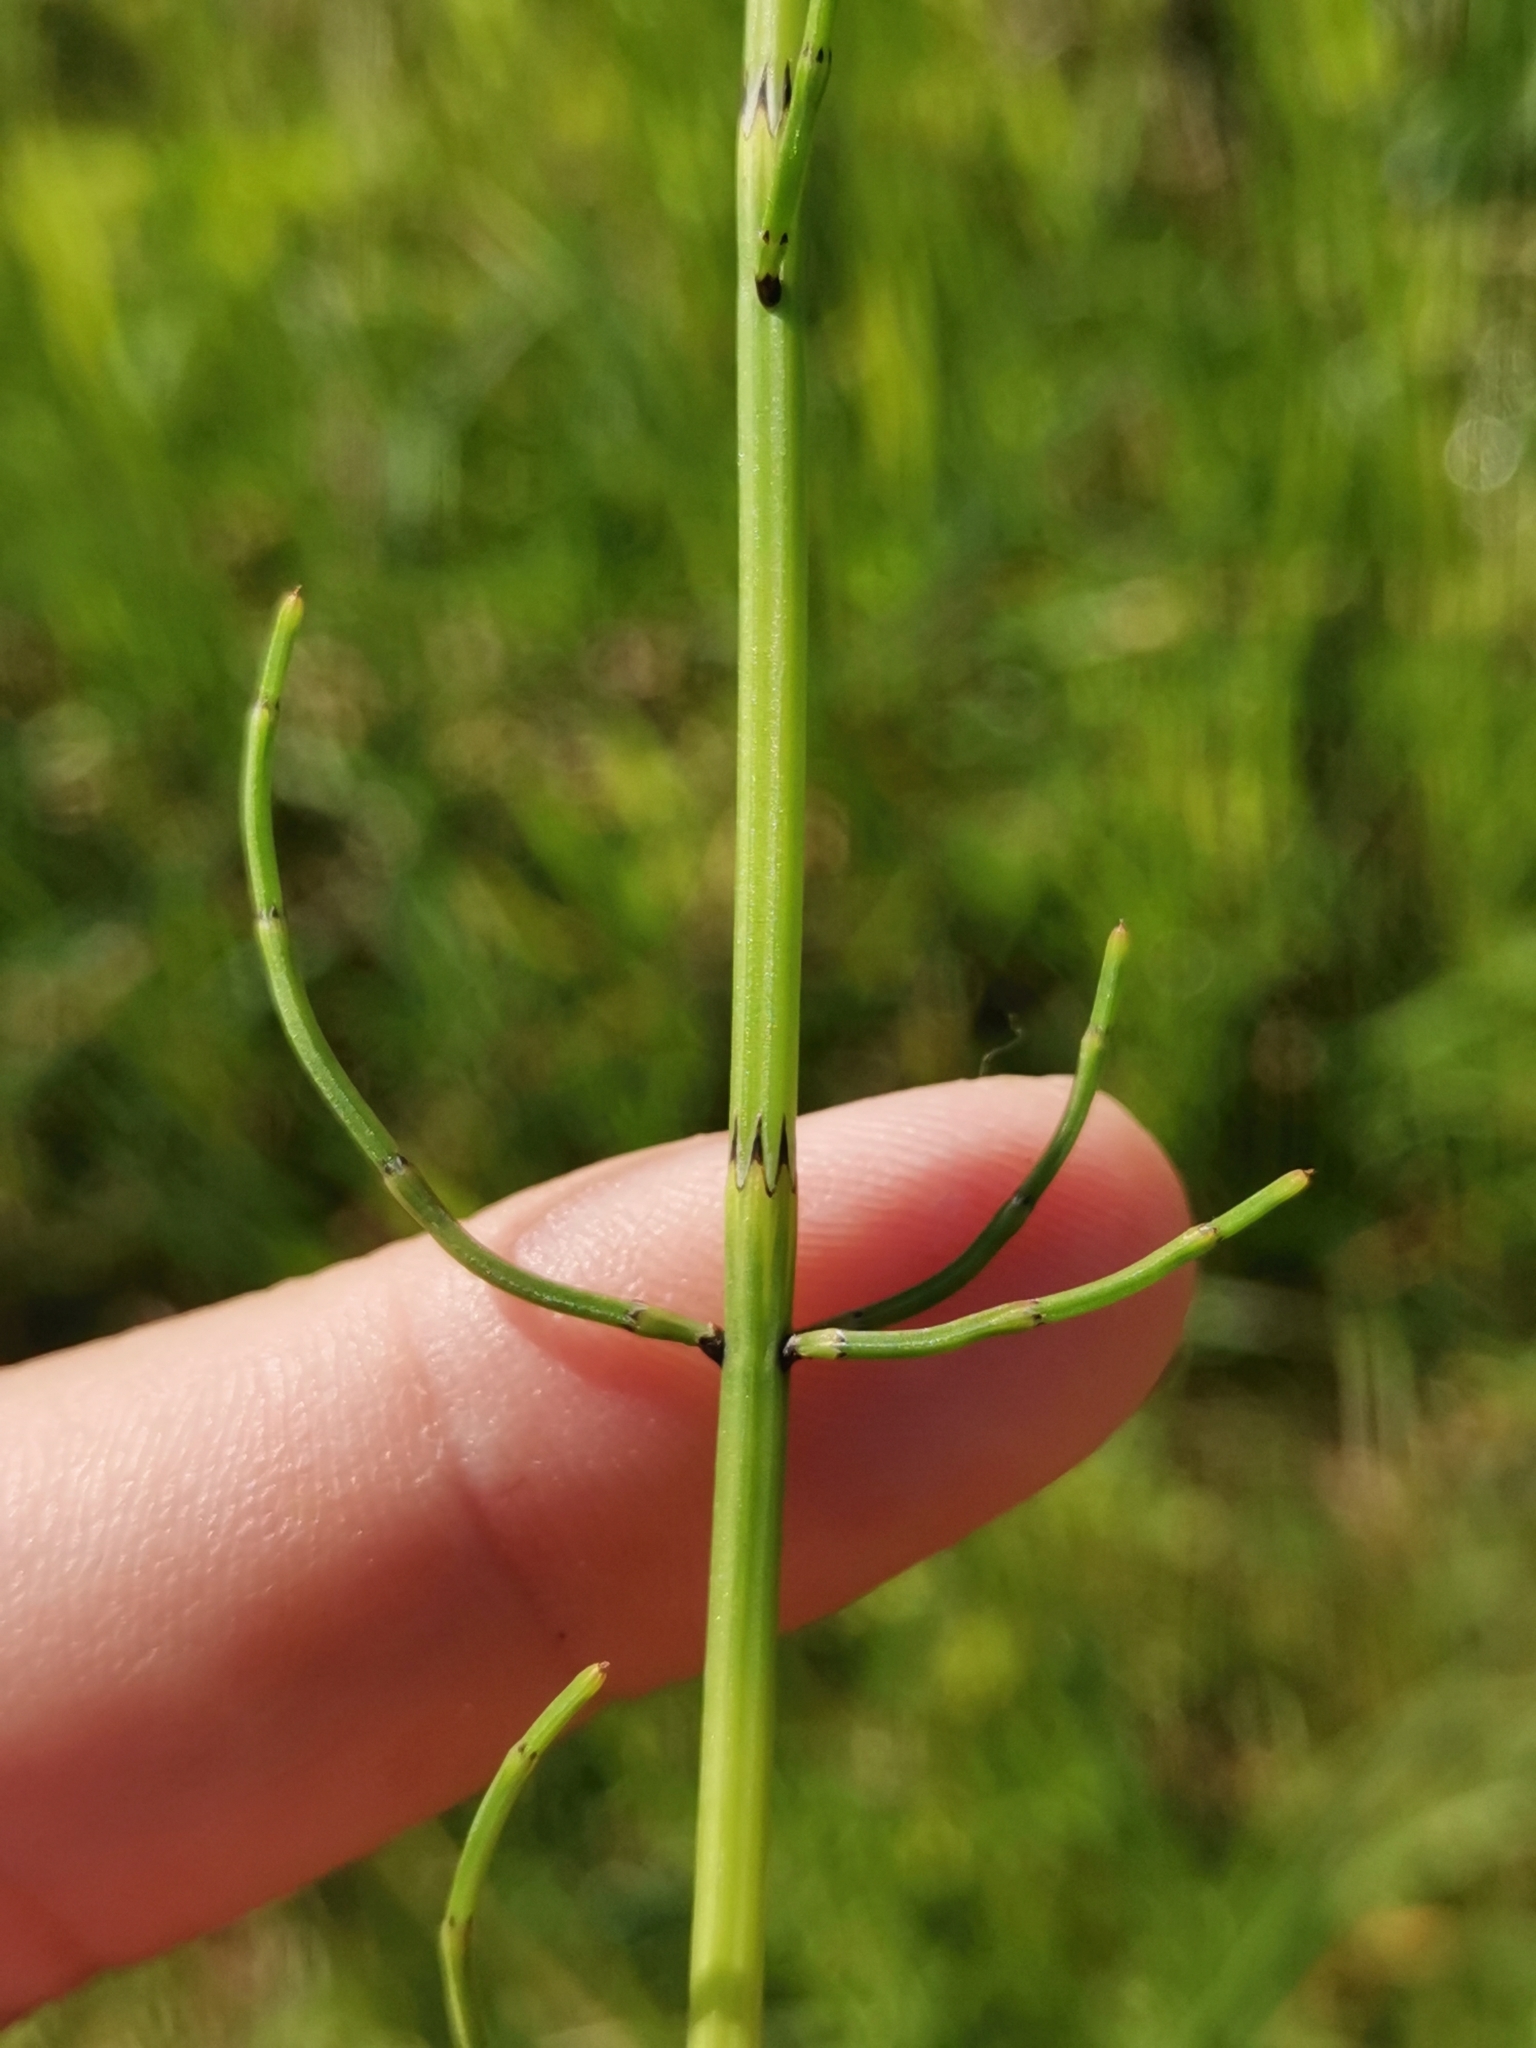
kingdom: Plantae
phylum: Tracheophyta
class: Polypodiopsida
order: Equisetales
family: Equisetaceae
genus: Equisetum
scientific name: Equisetum palustre
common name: Marsh horsetail
